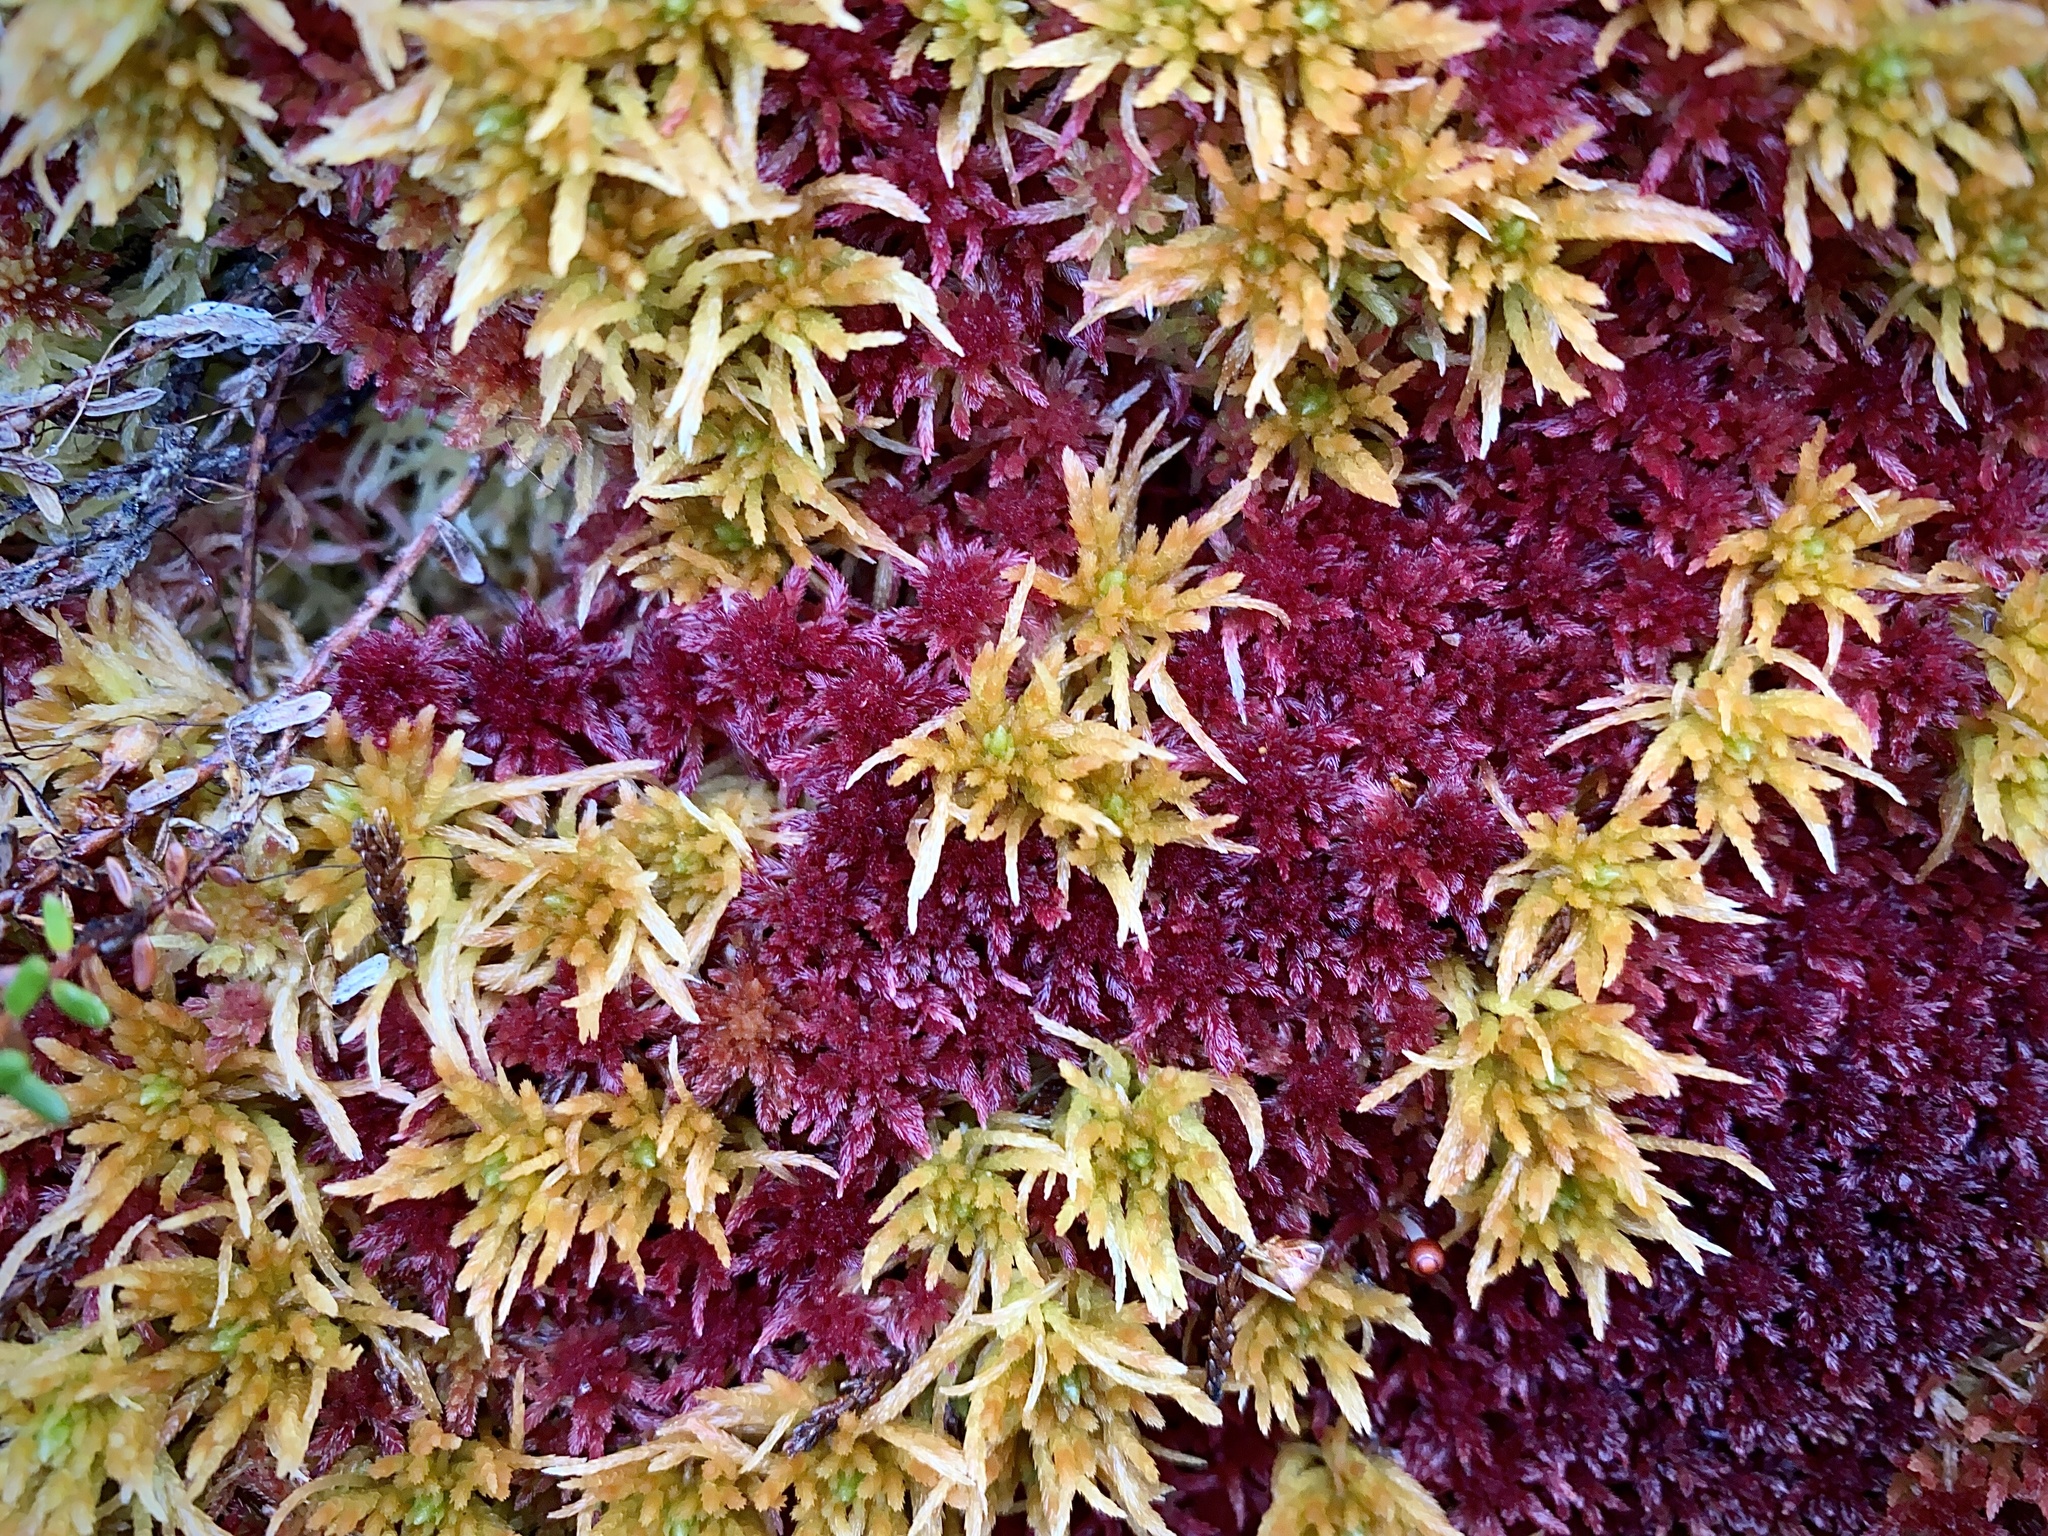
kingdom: Plantae
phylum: Bryophyta
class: Sphagnopsida
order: Sphagnales
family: Sphagnaceae
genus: Sphagnum
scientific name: Sphagnum teres
